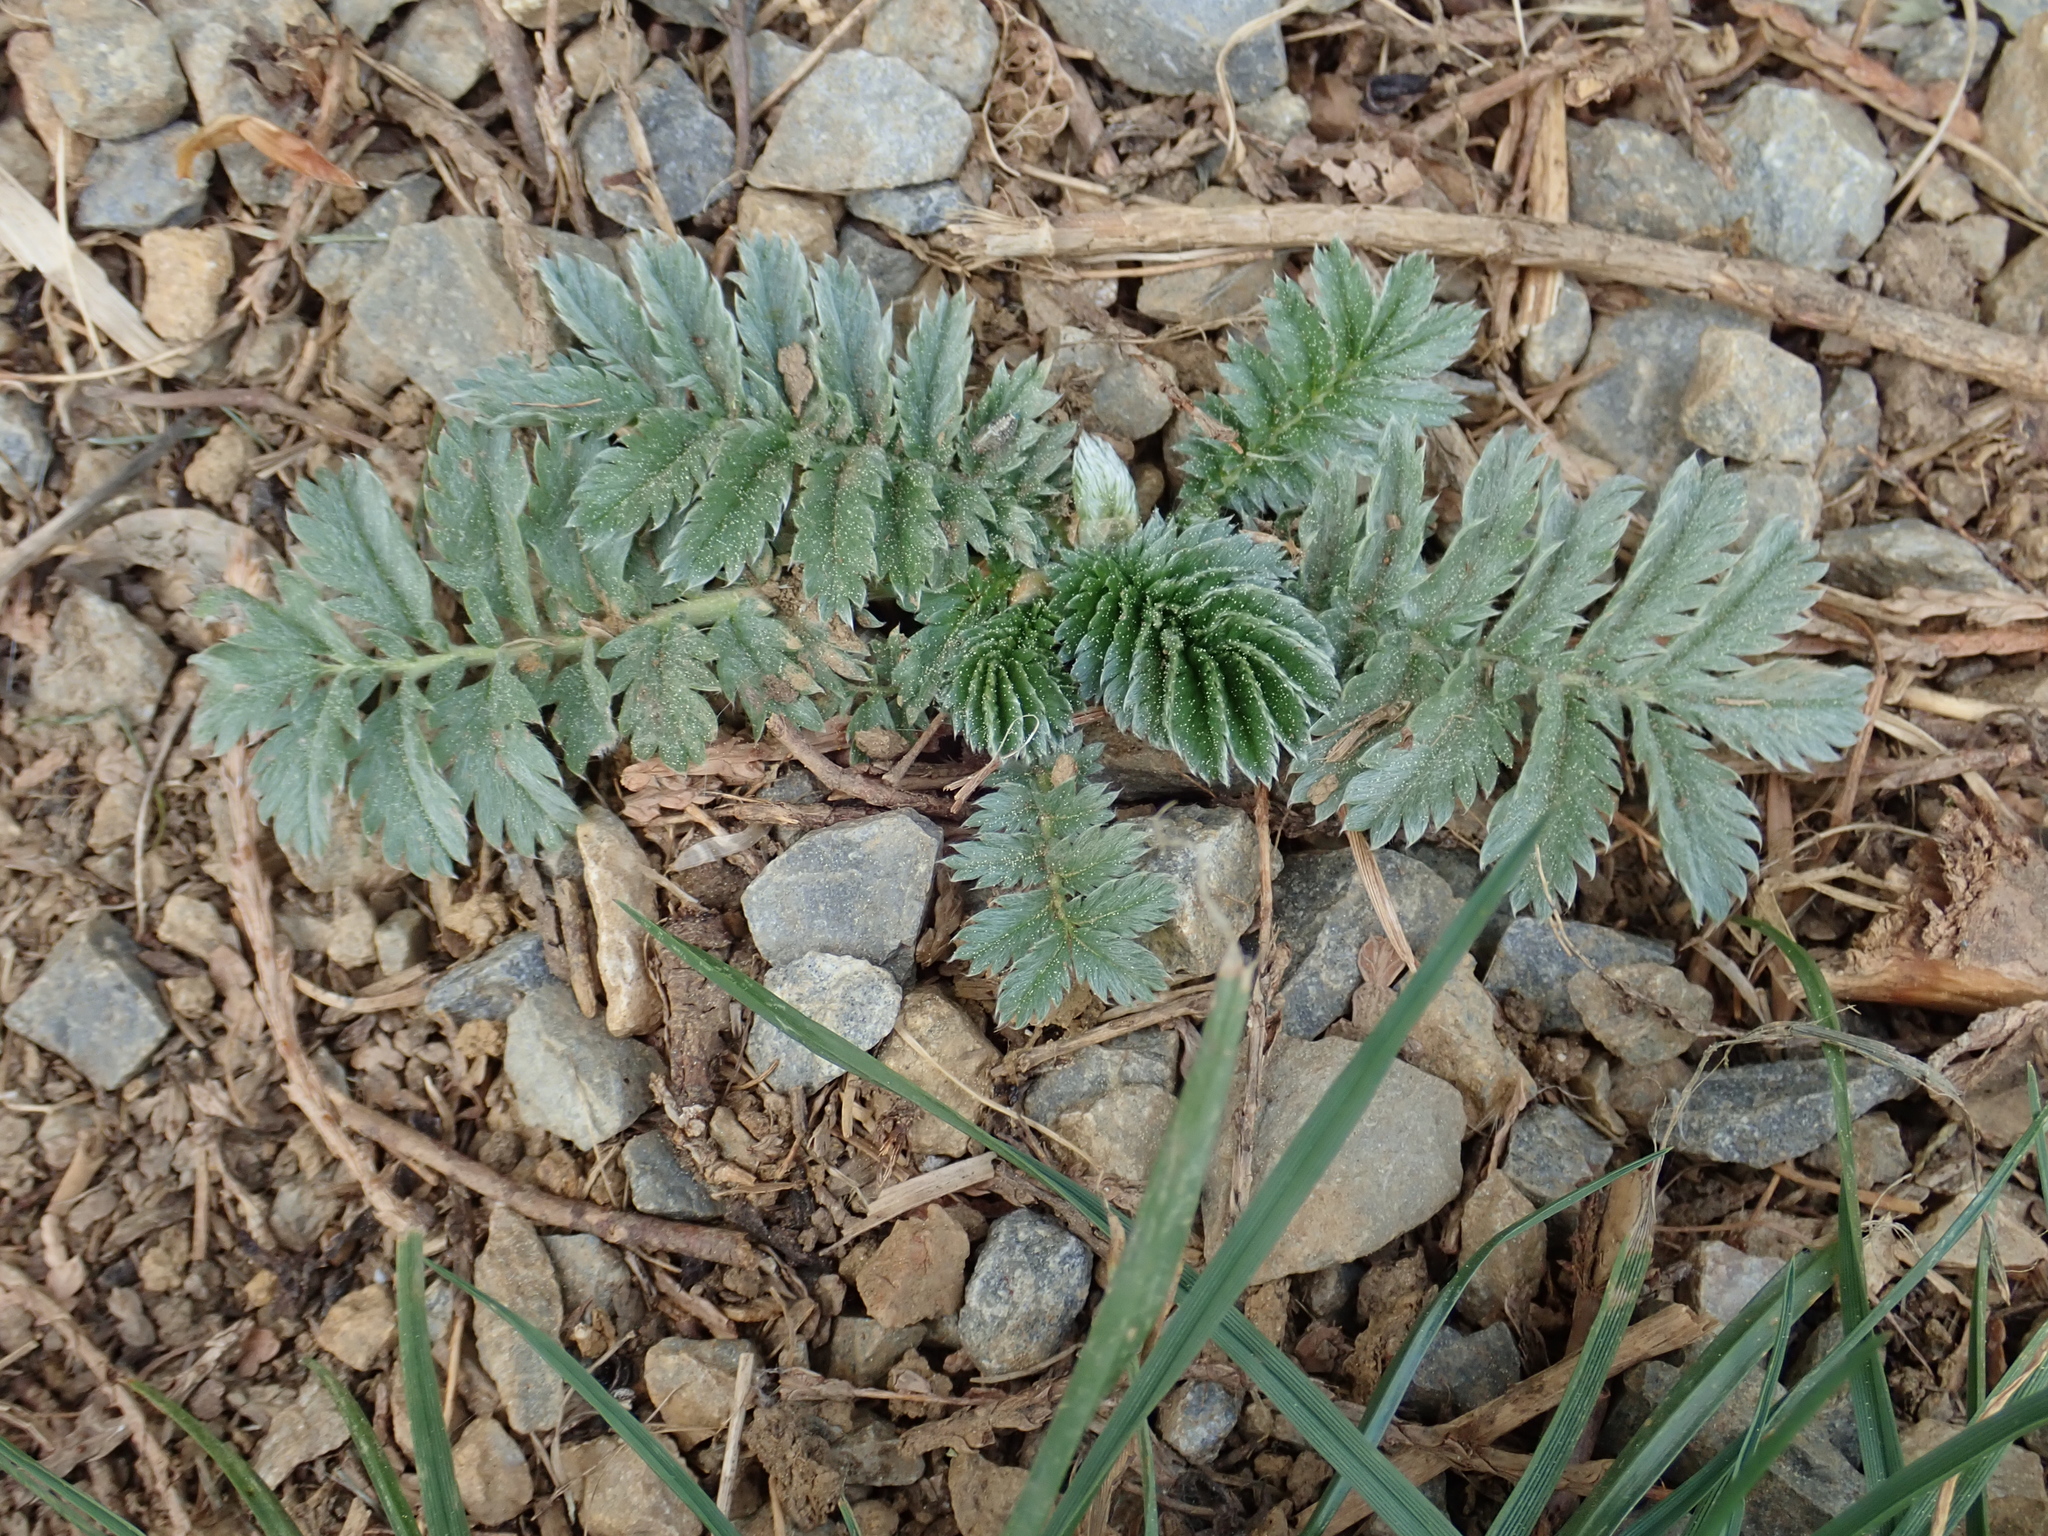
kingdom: Plantae
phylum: Tracheophyta
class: Magnoliopsida
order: Rosales
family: Rosaceae
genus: Argentina
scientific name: Argentina anserina
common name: Common silverweed
